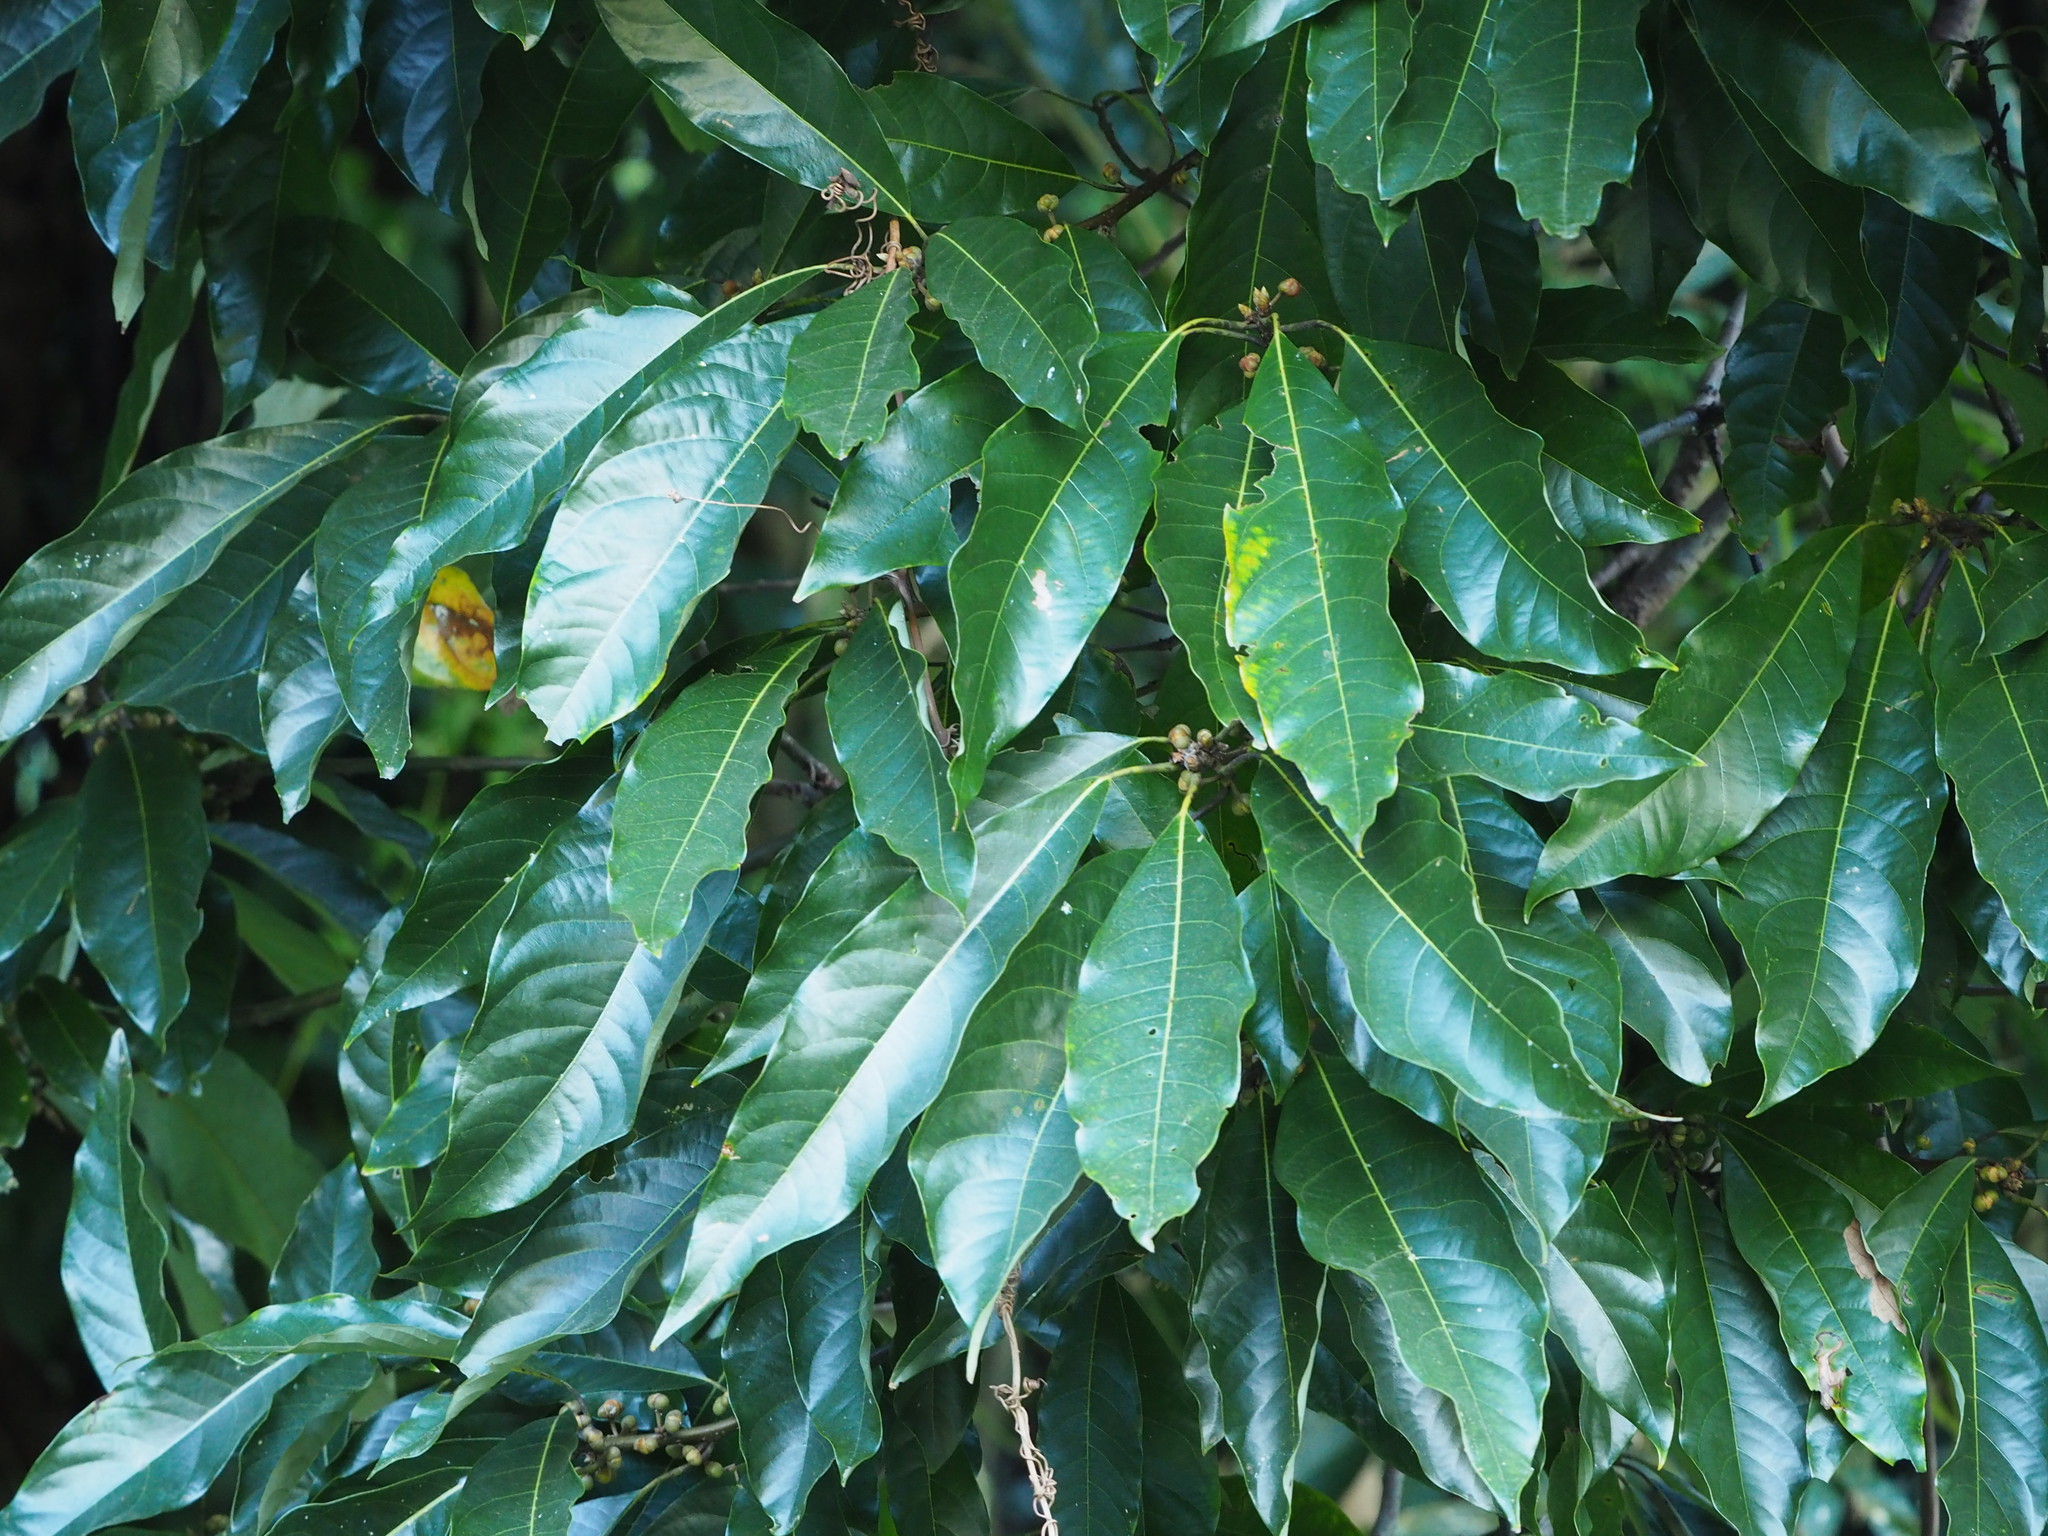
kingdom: Plantae
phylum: Tracheophyta
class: Magnoliopsida
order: Laurales
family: Lauraceae
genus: Lindera
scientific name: Lindera megaphylla
